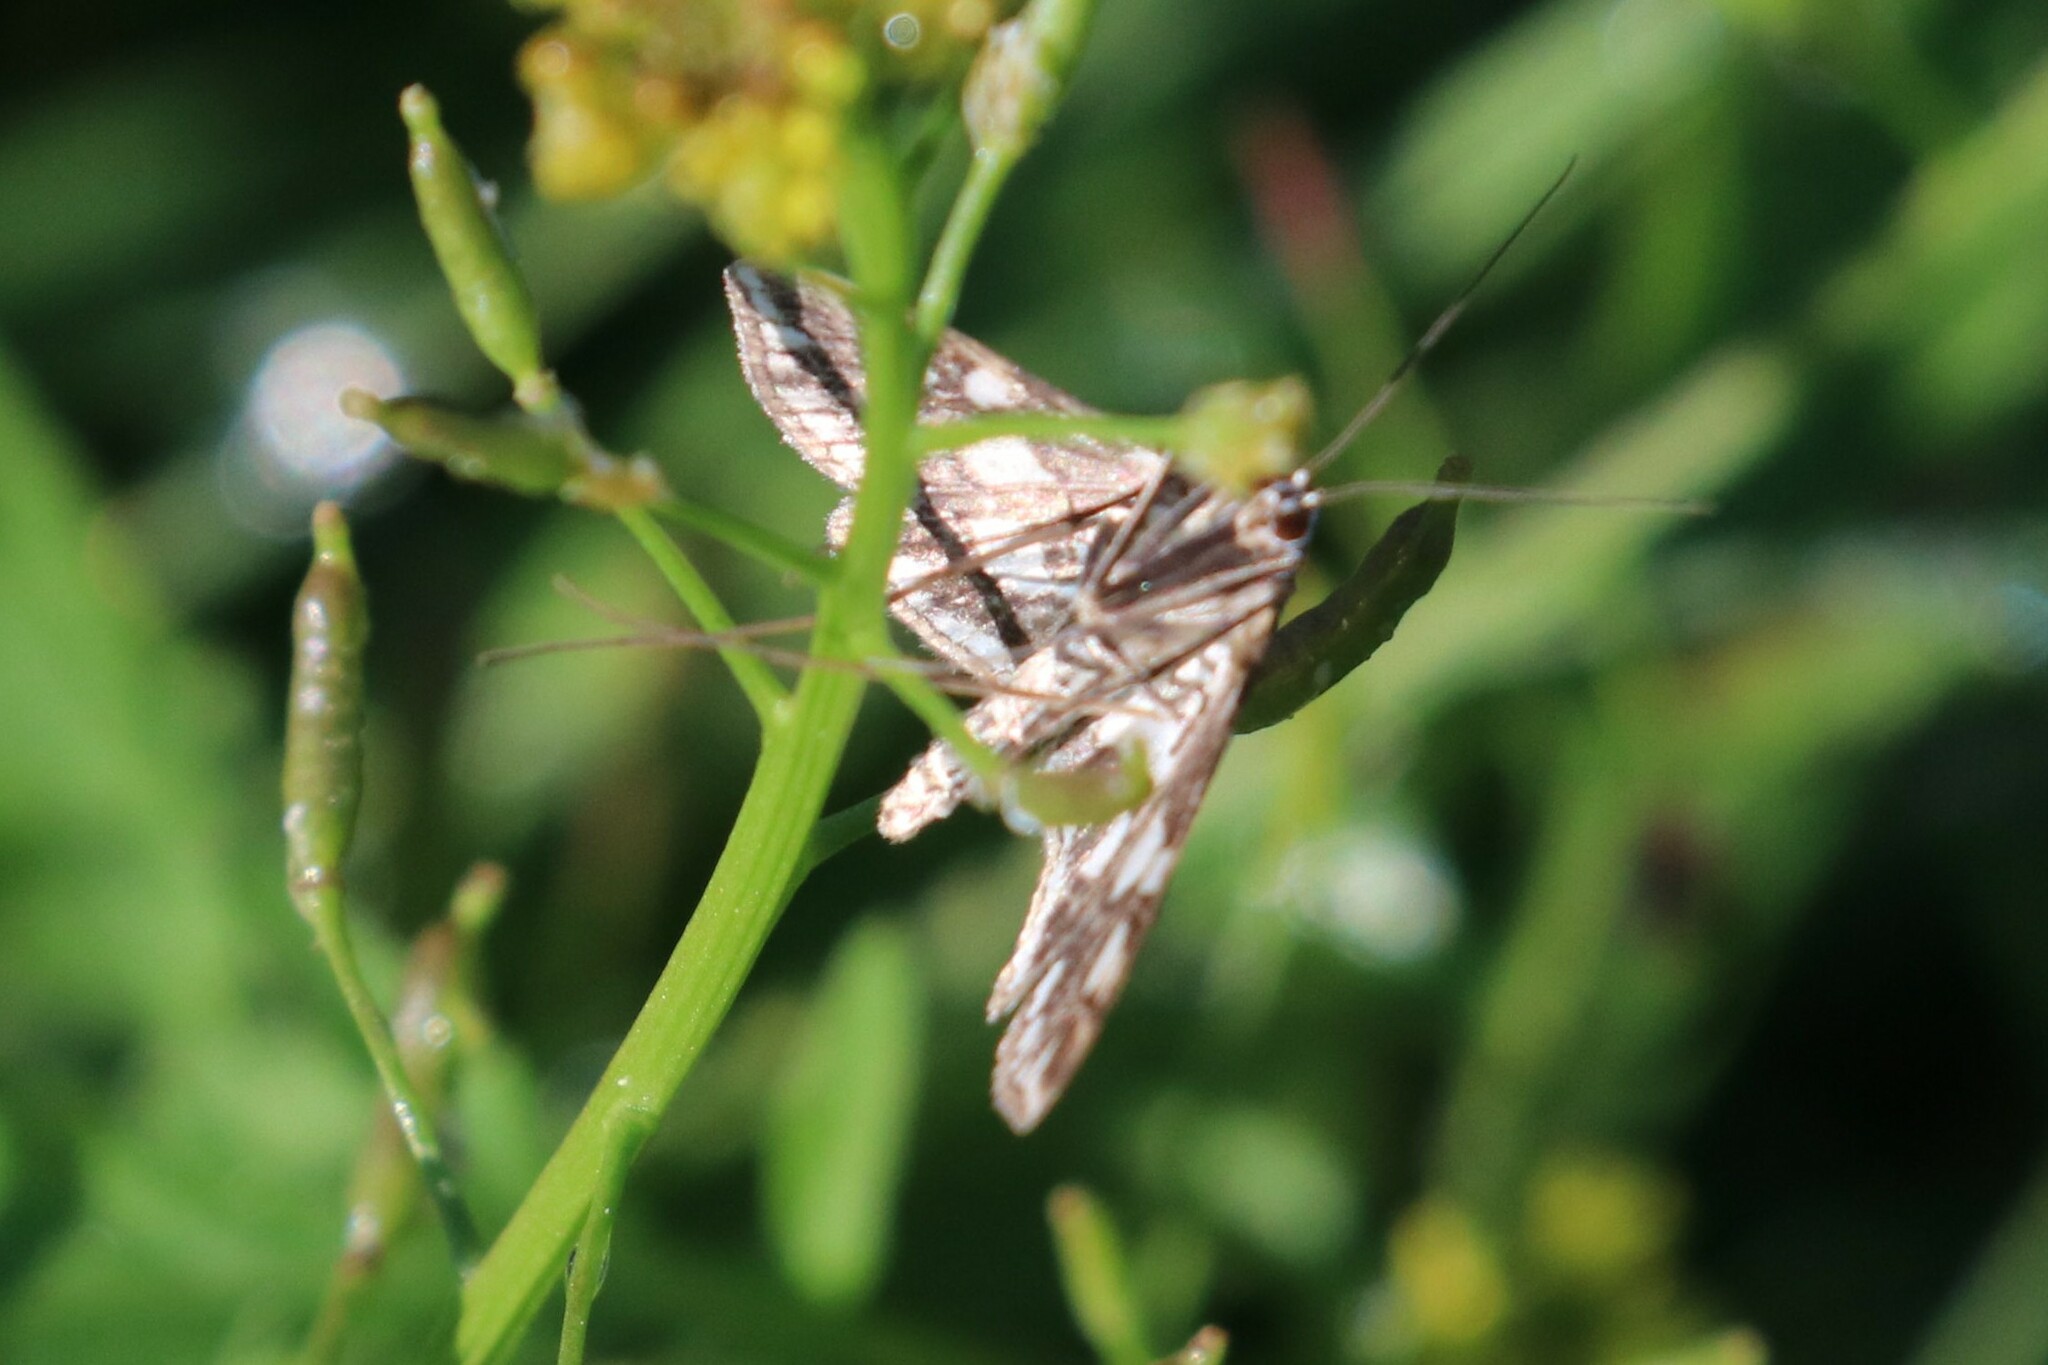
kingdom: Animalia
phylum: Arthropoda
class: Insecta
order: Lepidoptera
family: Crambidae
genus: Elophila
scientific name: Elophila nymphaeata
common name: Brown china-mark
